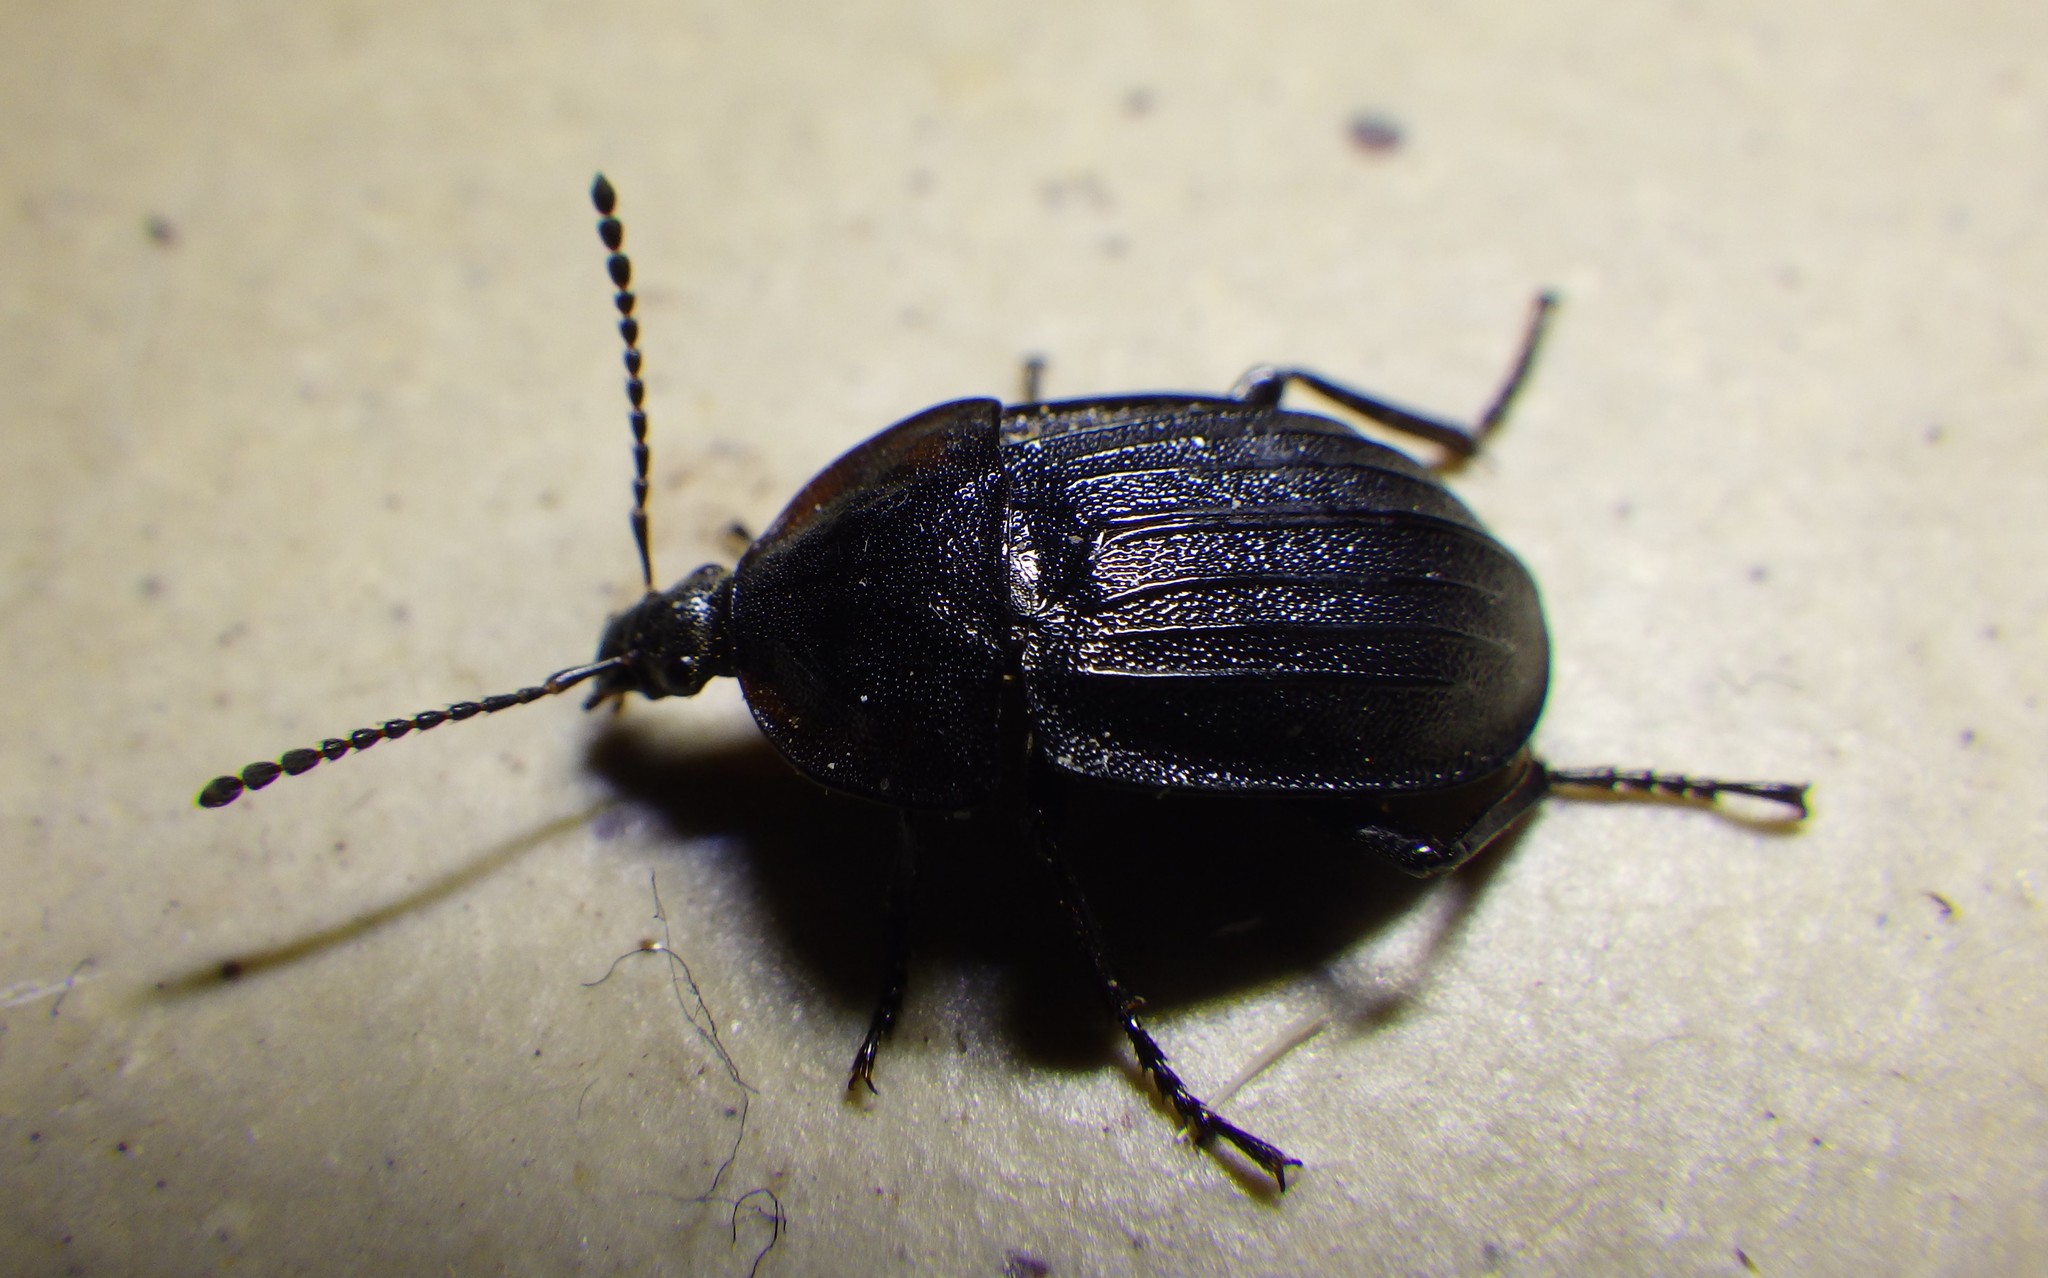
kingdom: Animalia
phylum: Arthropoda
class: Insecta
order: Coleoptera
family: Staphylinidae
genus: Silpha
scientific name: Silpha atrata
